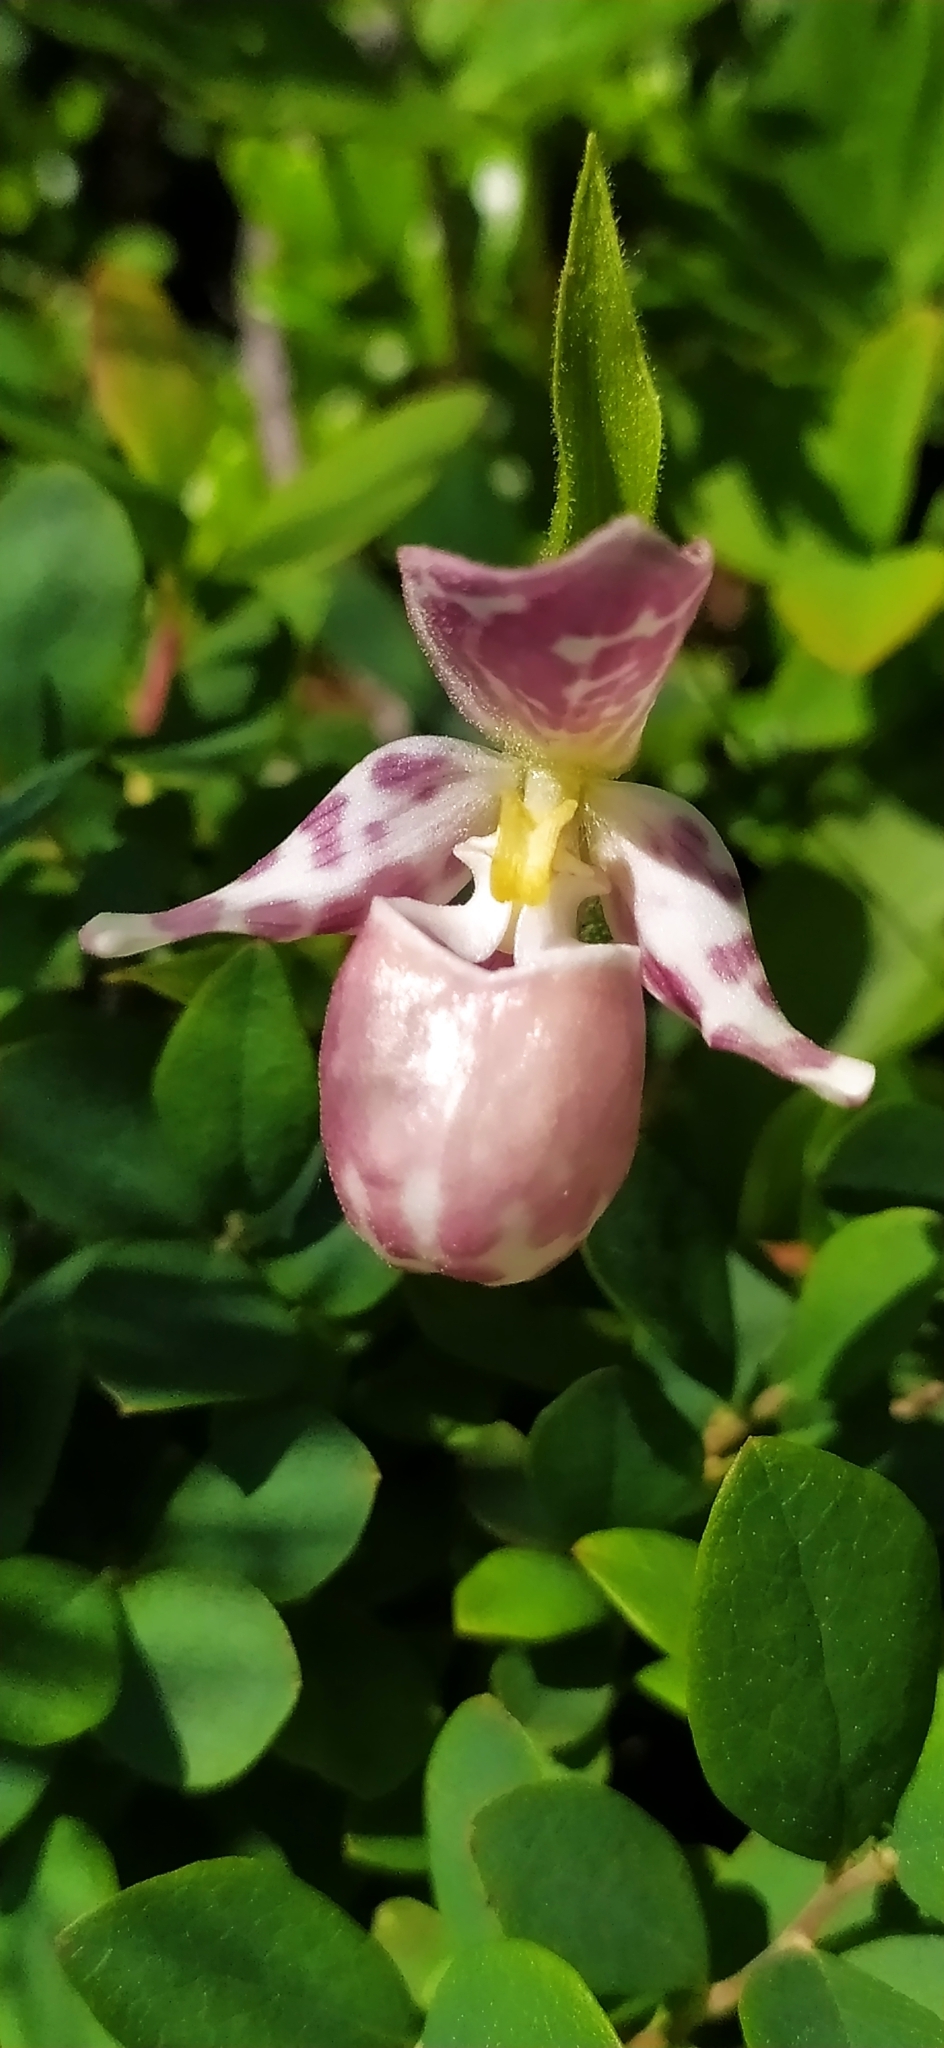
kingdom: Plantae
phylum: Tracheophyta
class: Liliopsida
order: Asparagales
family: Orchidaceae
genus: Cypripedium
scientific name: Cypripedium guttatum
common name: Pink lady slipper
